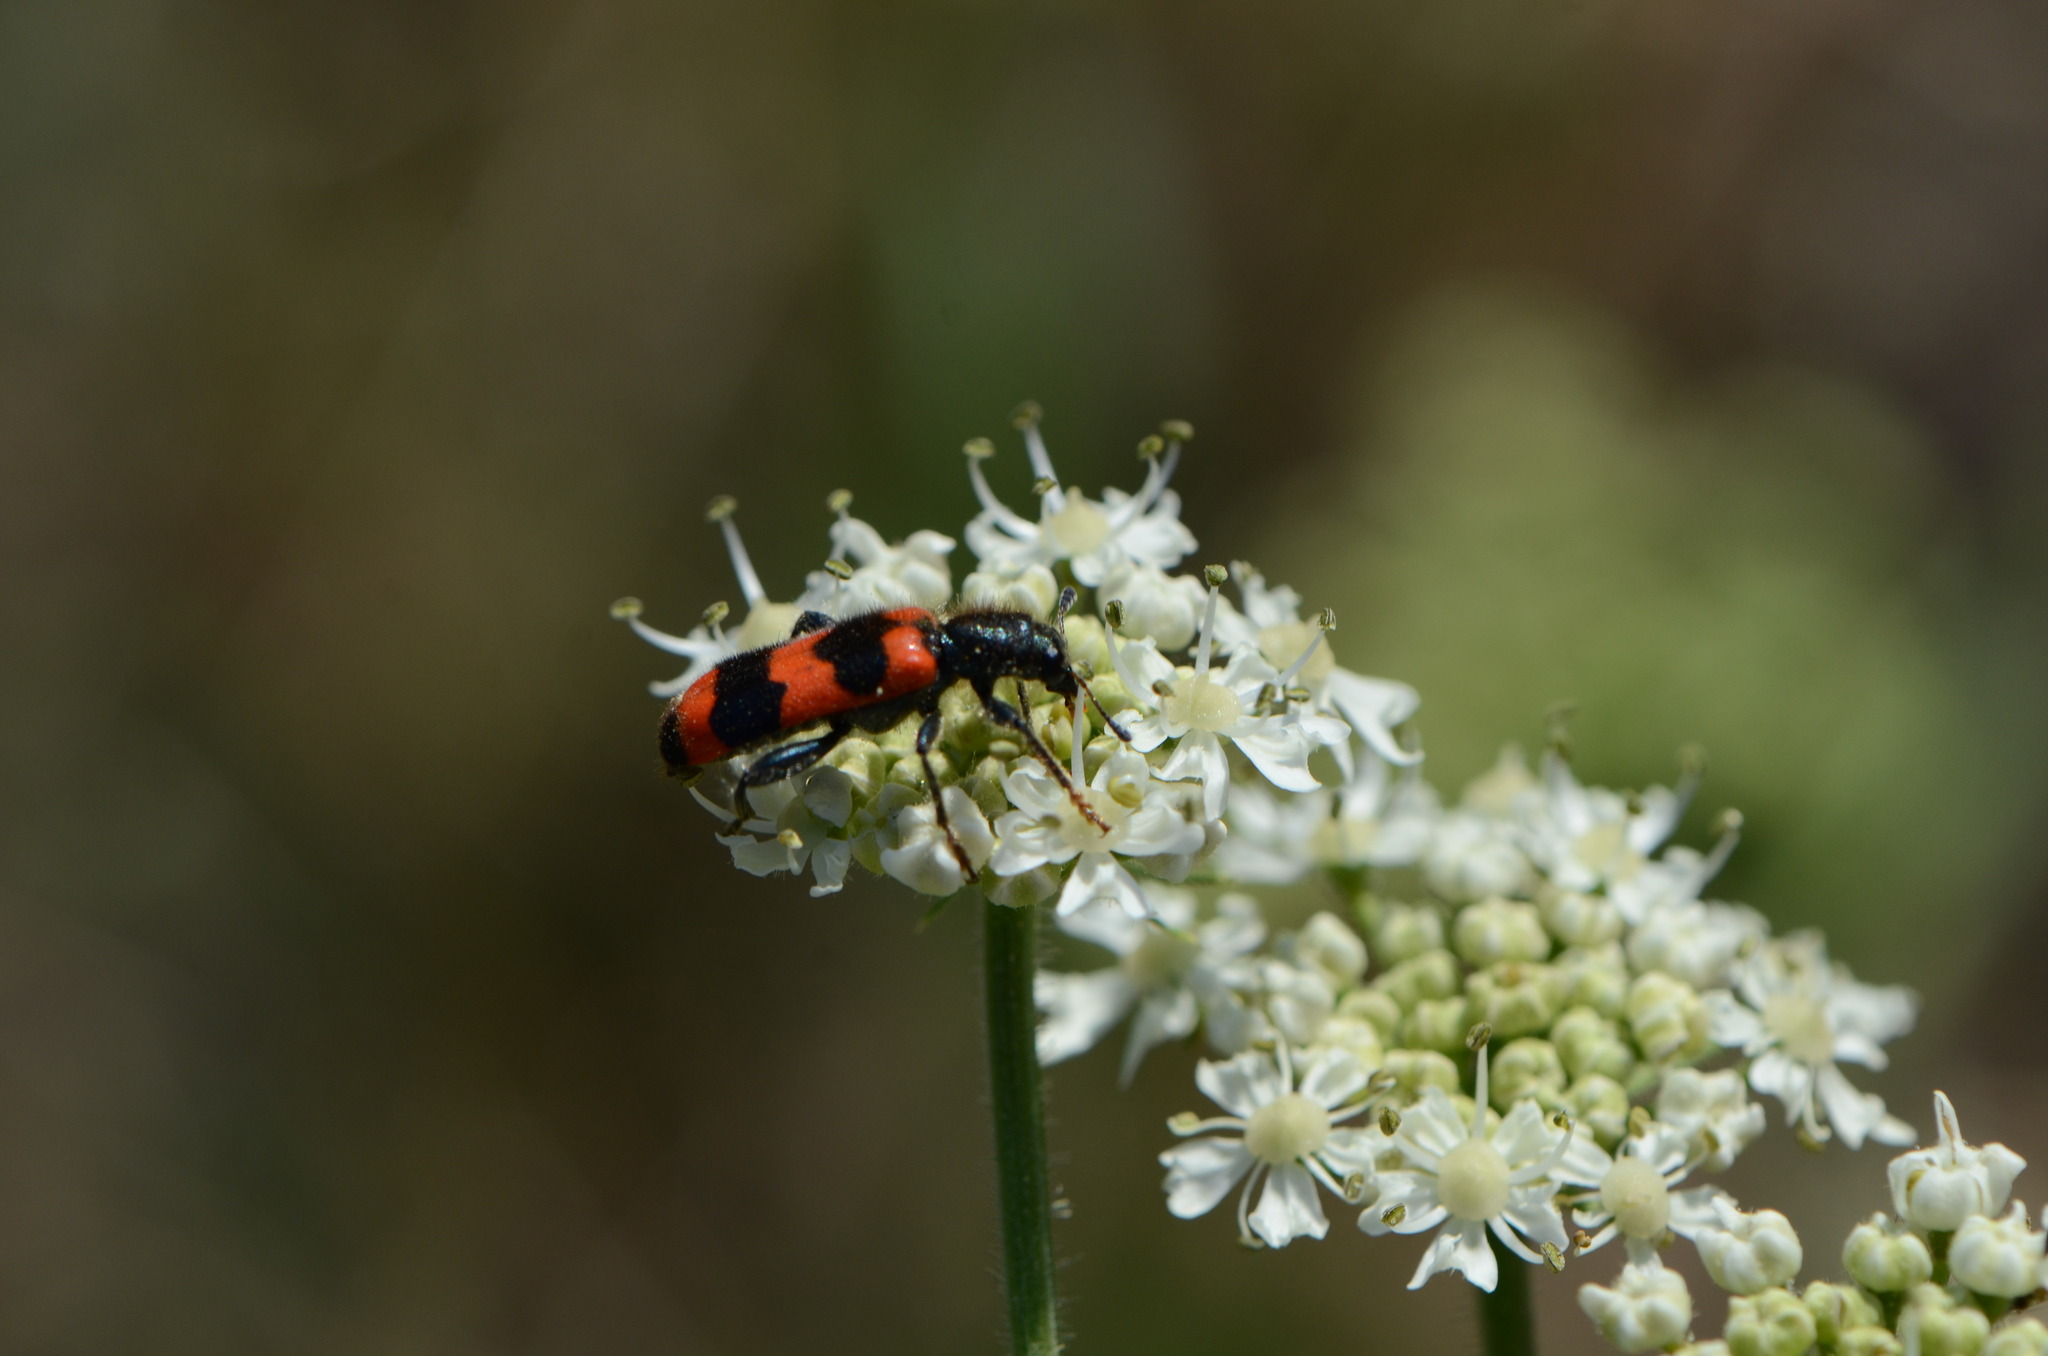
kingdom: Animalia
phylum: Arthropoda
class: Insecta
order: Coleoptera
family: Cleridae
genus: Trichodes
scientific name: Trichodes apiarius
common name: Bee-eating beetle
